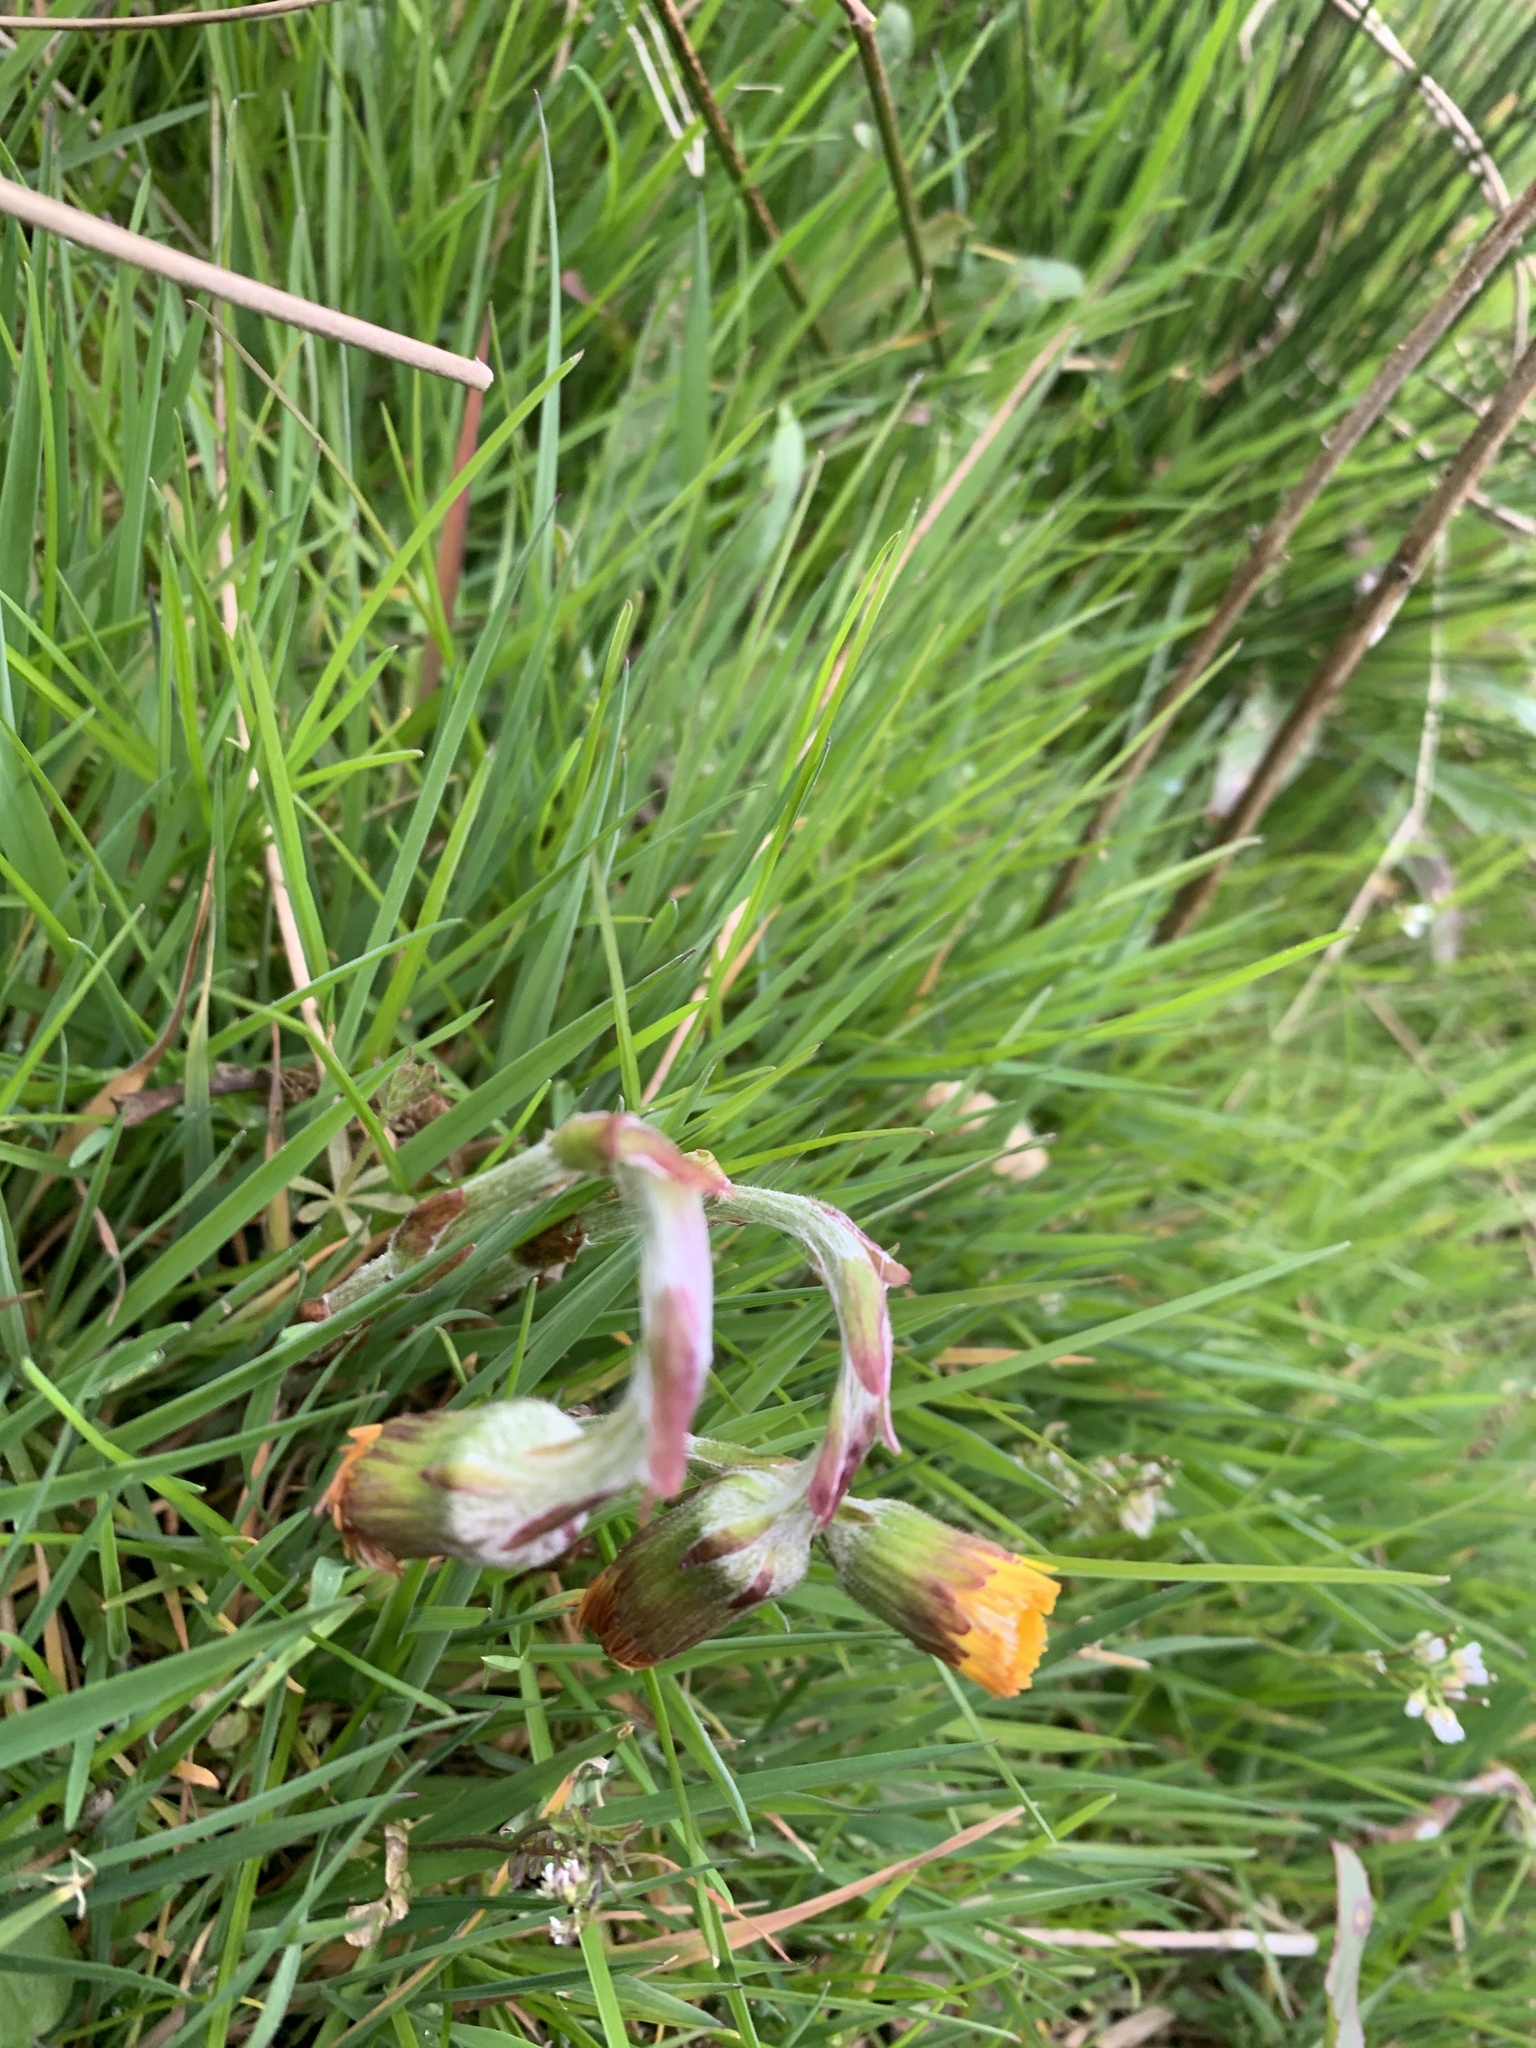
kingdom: Plantae
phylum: Tracheophyta
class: Magnoliopsida
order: Asterales
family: Asteraceae
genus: Tussilago
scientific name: Tussilago farfara
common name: Coltsfoot
